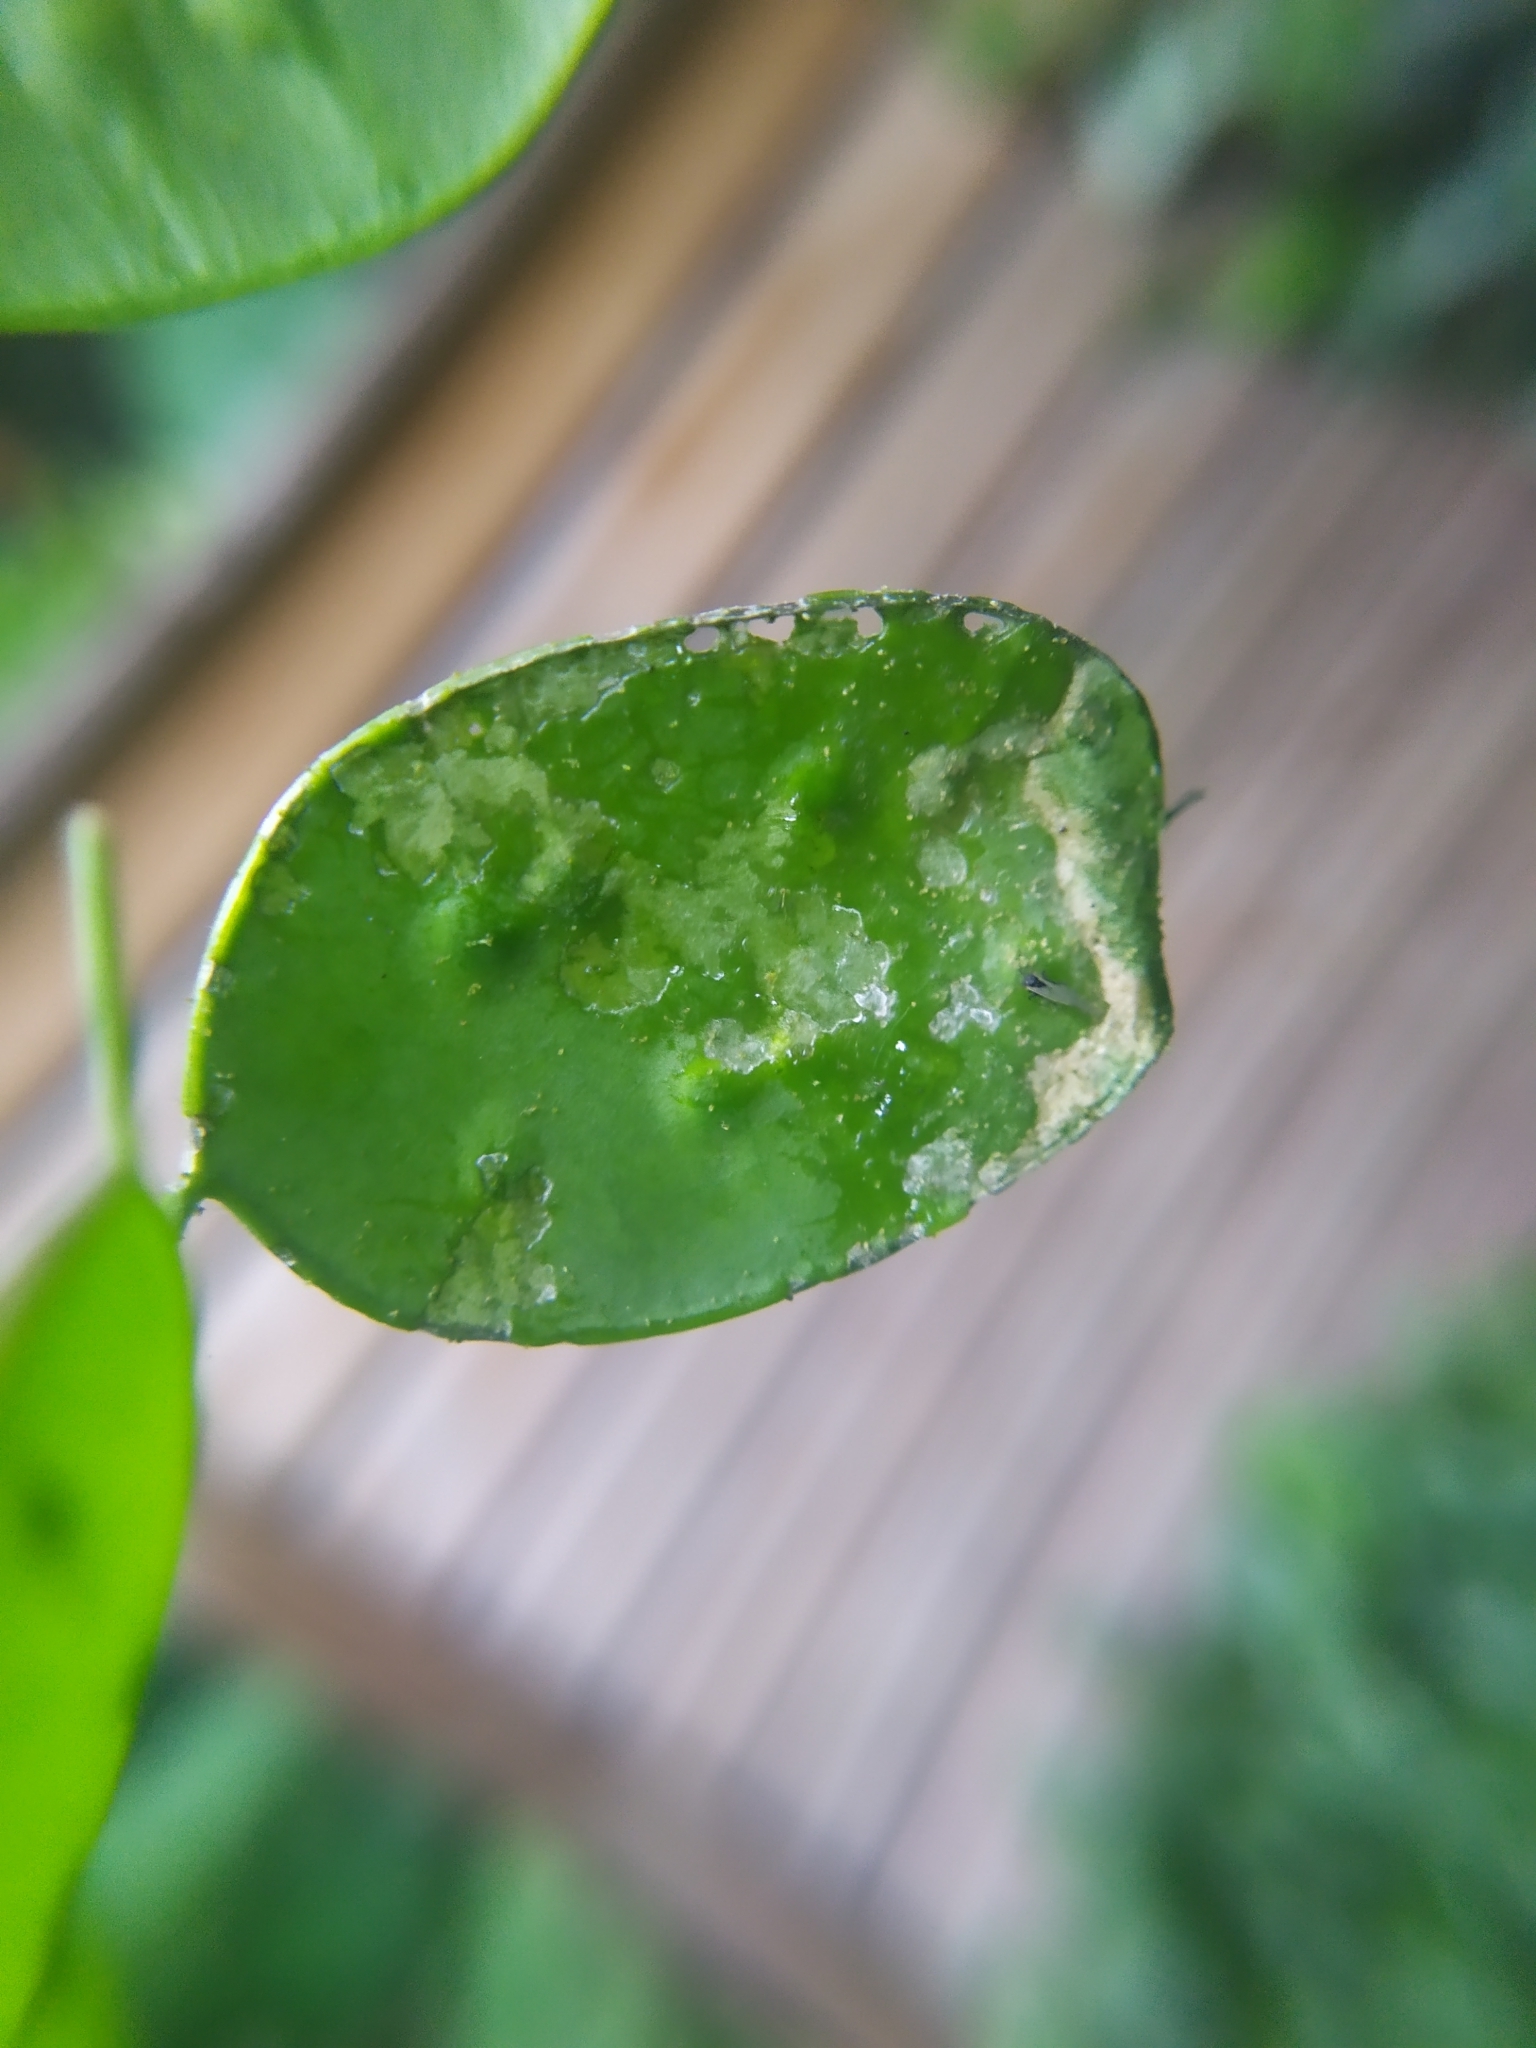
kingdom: Animalia
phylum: Arthropoda
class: Insecta
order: Lepidoptera
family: Pieridae
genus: Pieris
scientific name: Pieris brassicae
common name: Large white
